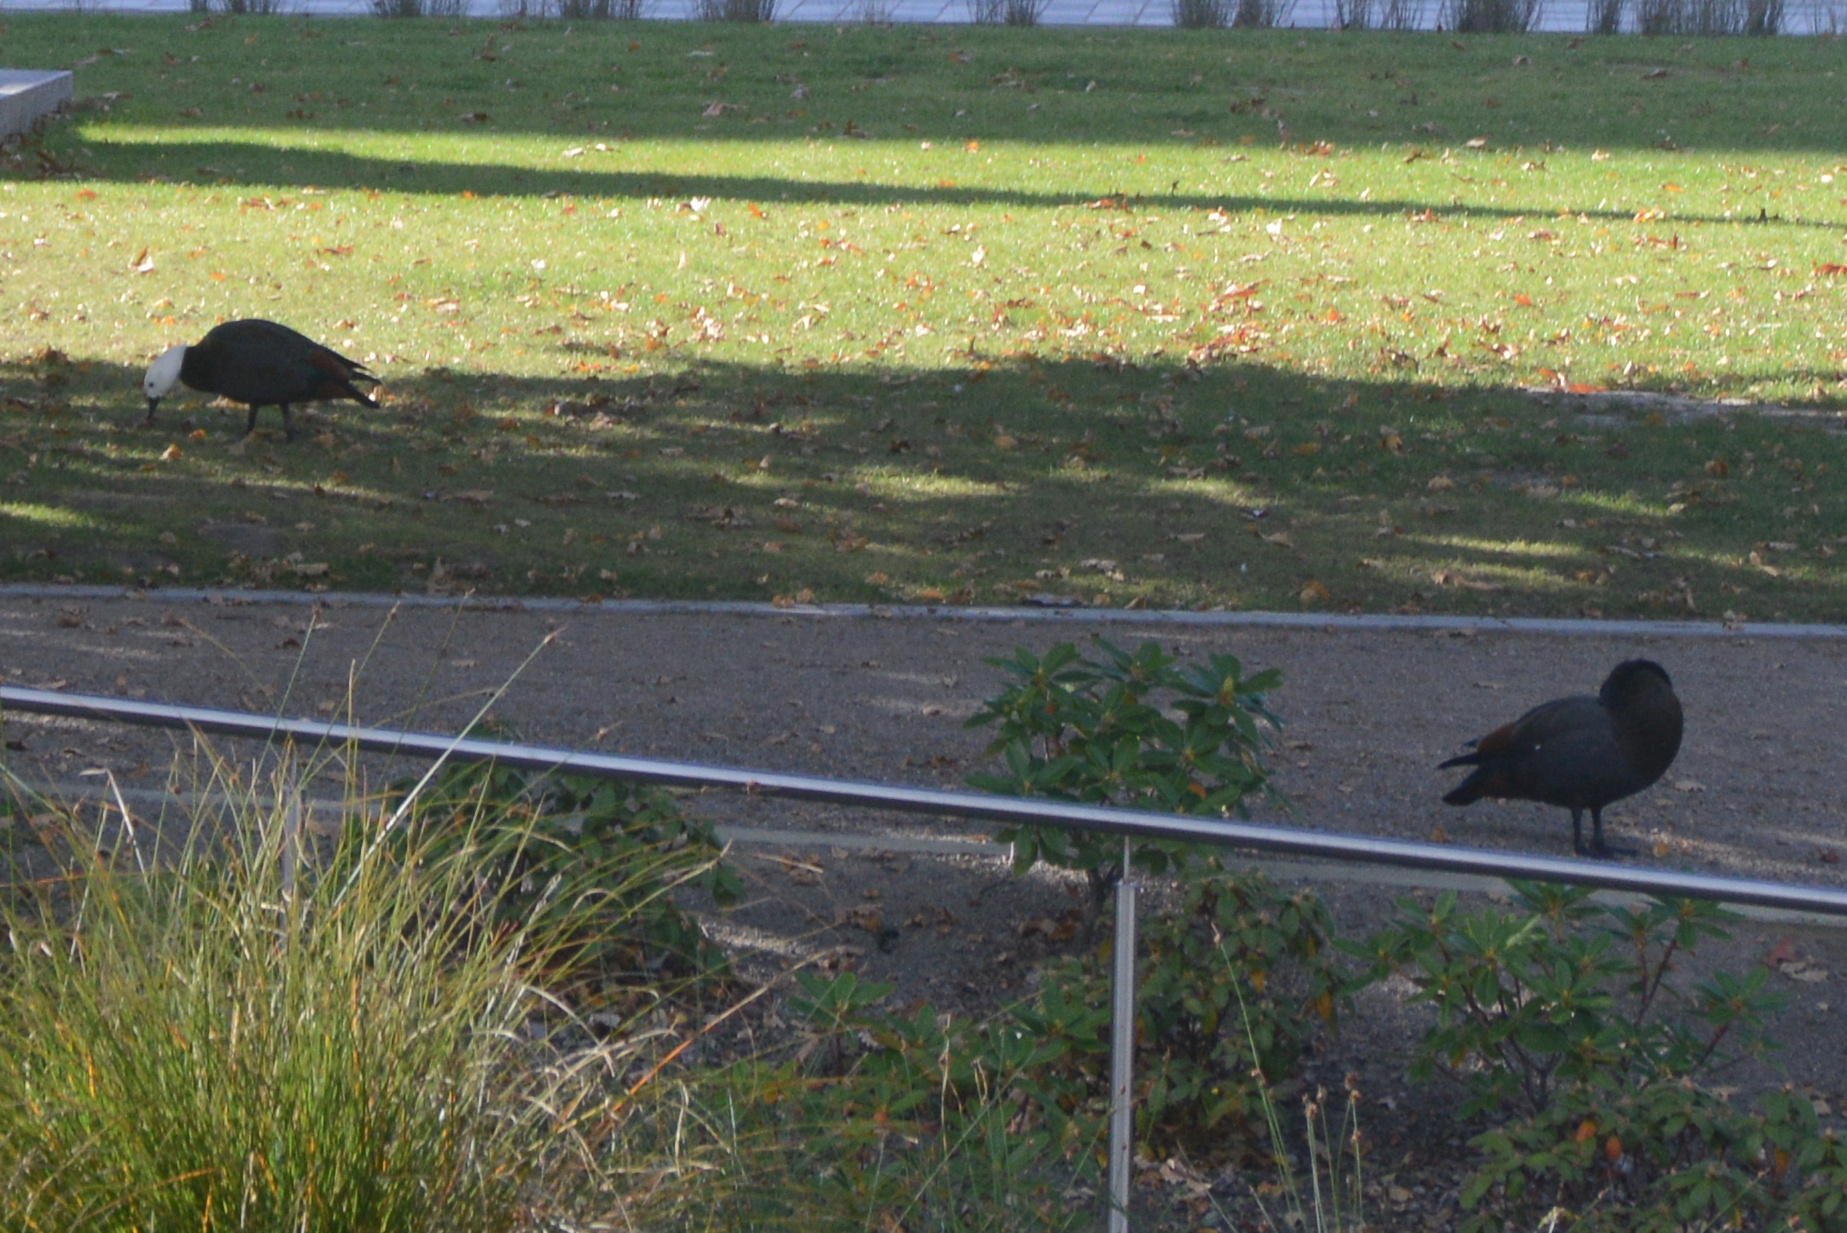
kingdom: Animalia
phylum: Chordata
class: Aves
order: Anseriformes
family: Anatidae
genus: Tadorna
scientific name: Tadorna variegata
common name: Paradise shelduck
